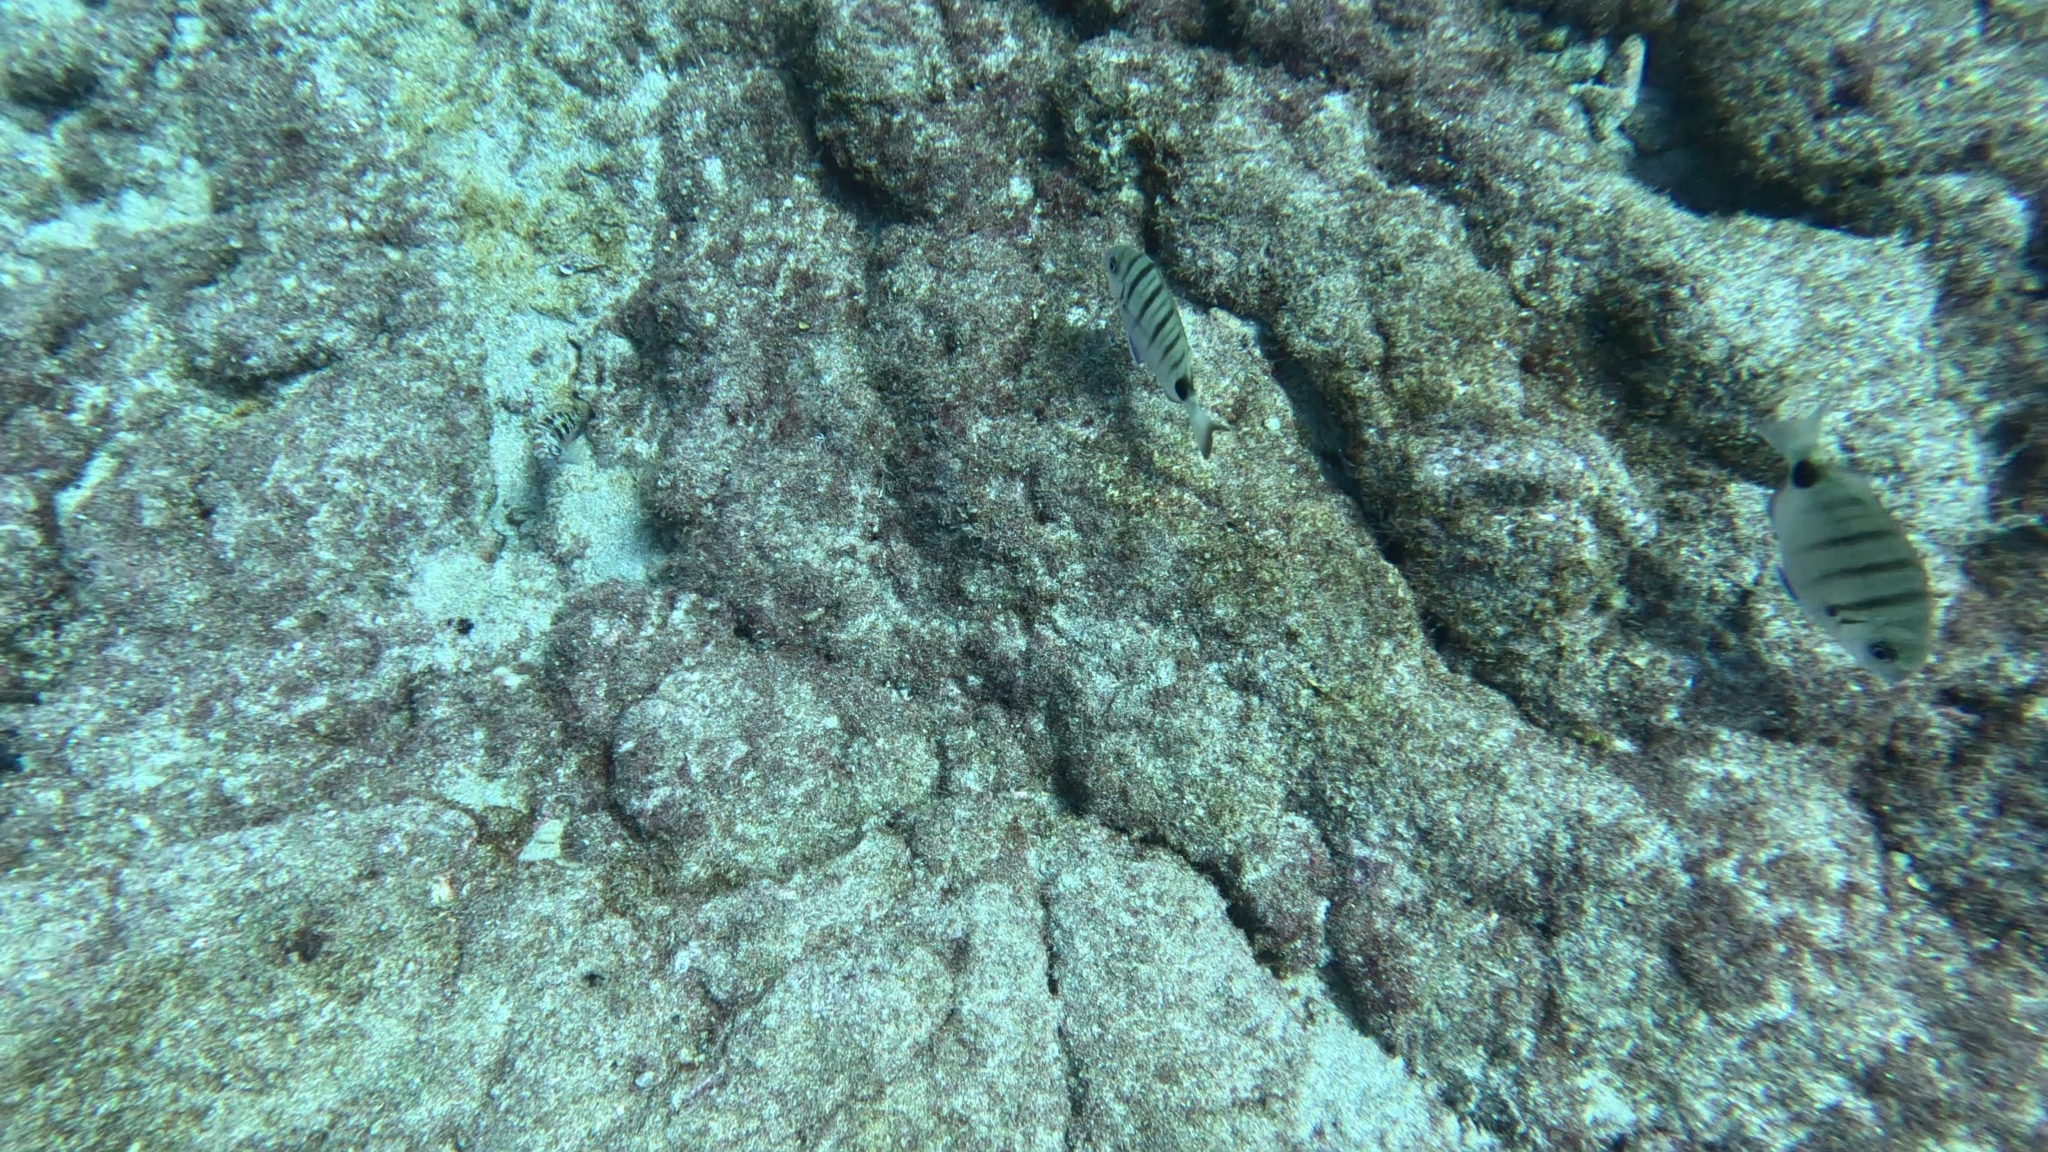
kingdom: Animalia
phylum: Chordata
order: Perciformes
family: Sparidae
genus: Diplodus
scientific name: Diplodus cadenati
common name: Moroccan white seabream
